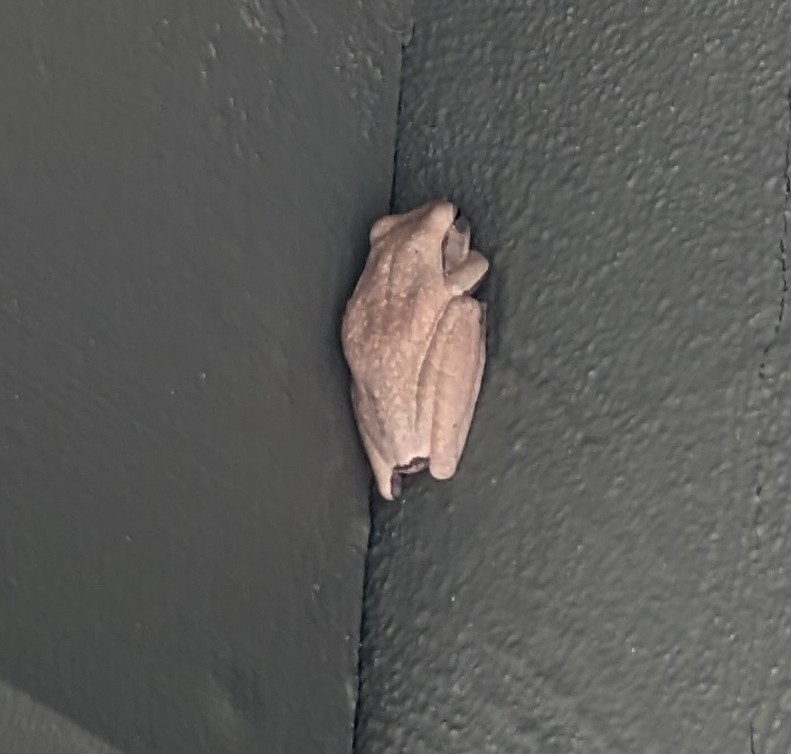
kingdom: Animalia
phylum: Chordata
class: Amphibia
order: Anura
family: Rhacophoridae
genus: Polypedates
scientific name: Polypedates leucomystax
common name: Common tree frog/four-lined tree frog
